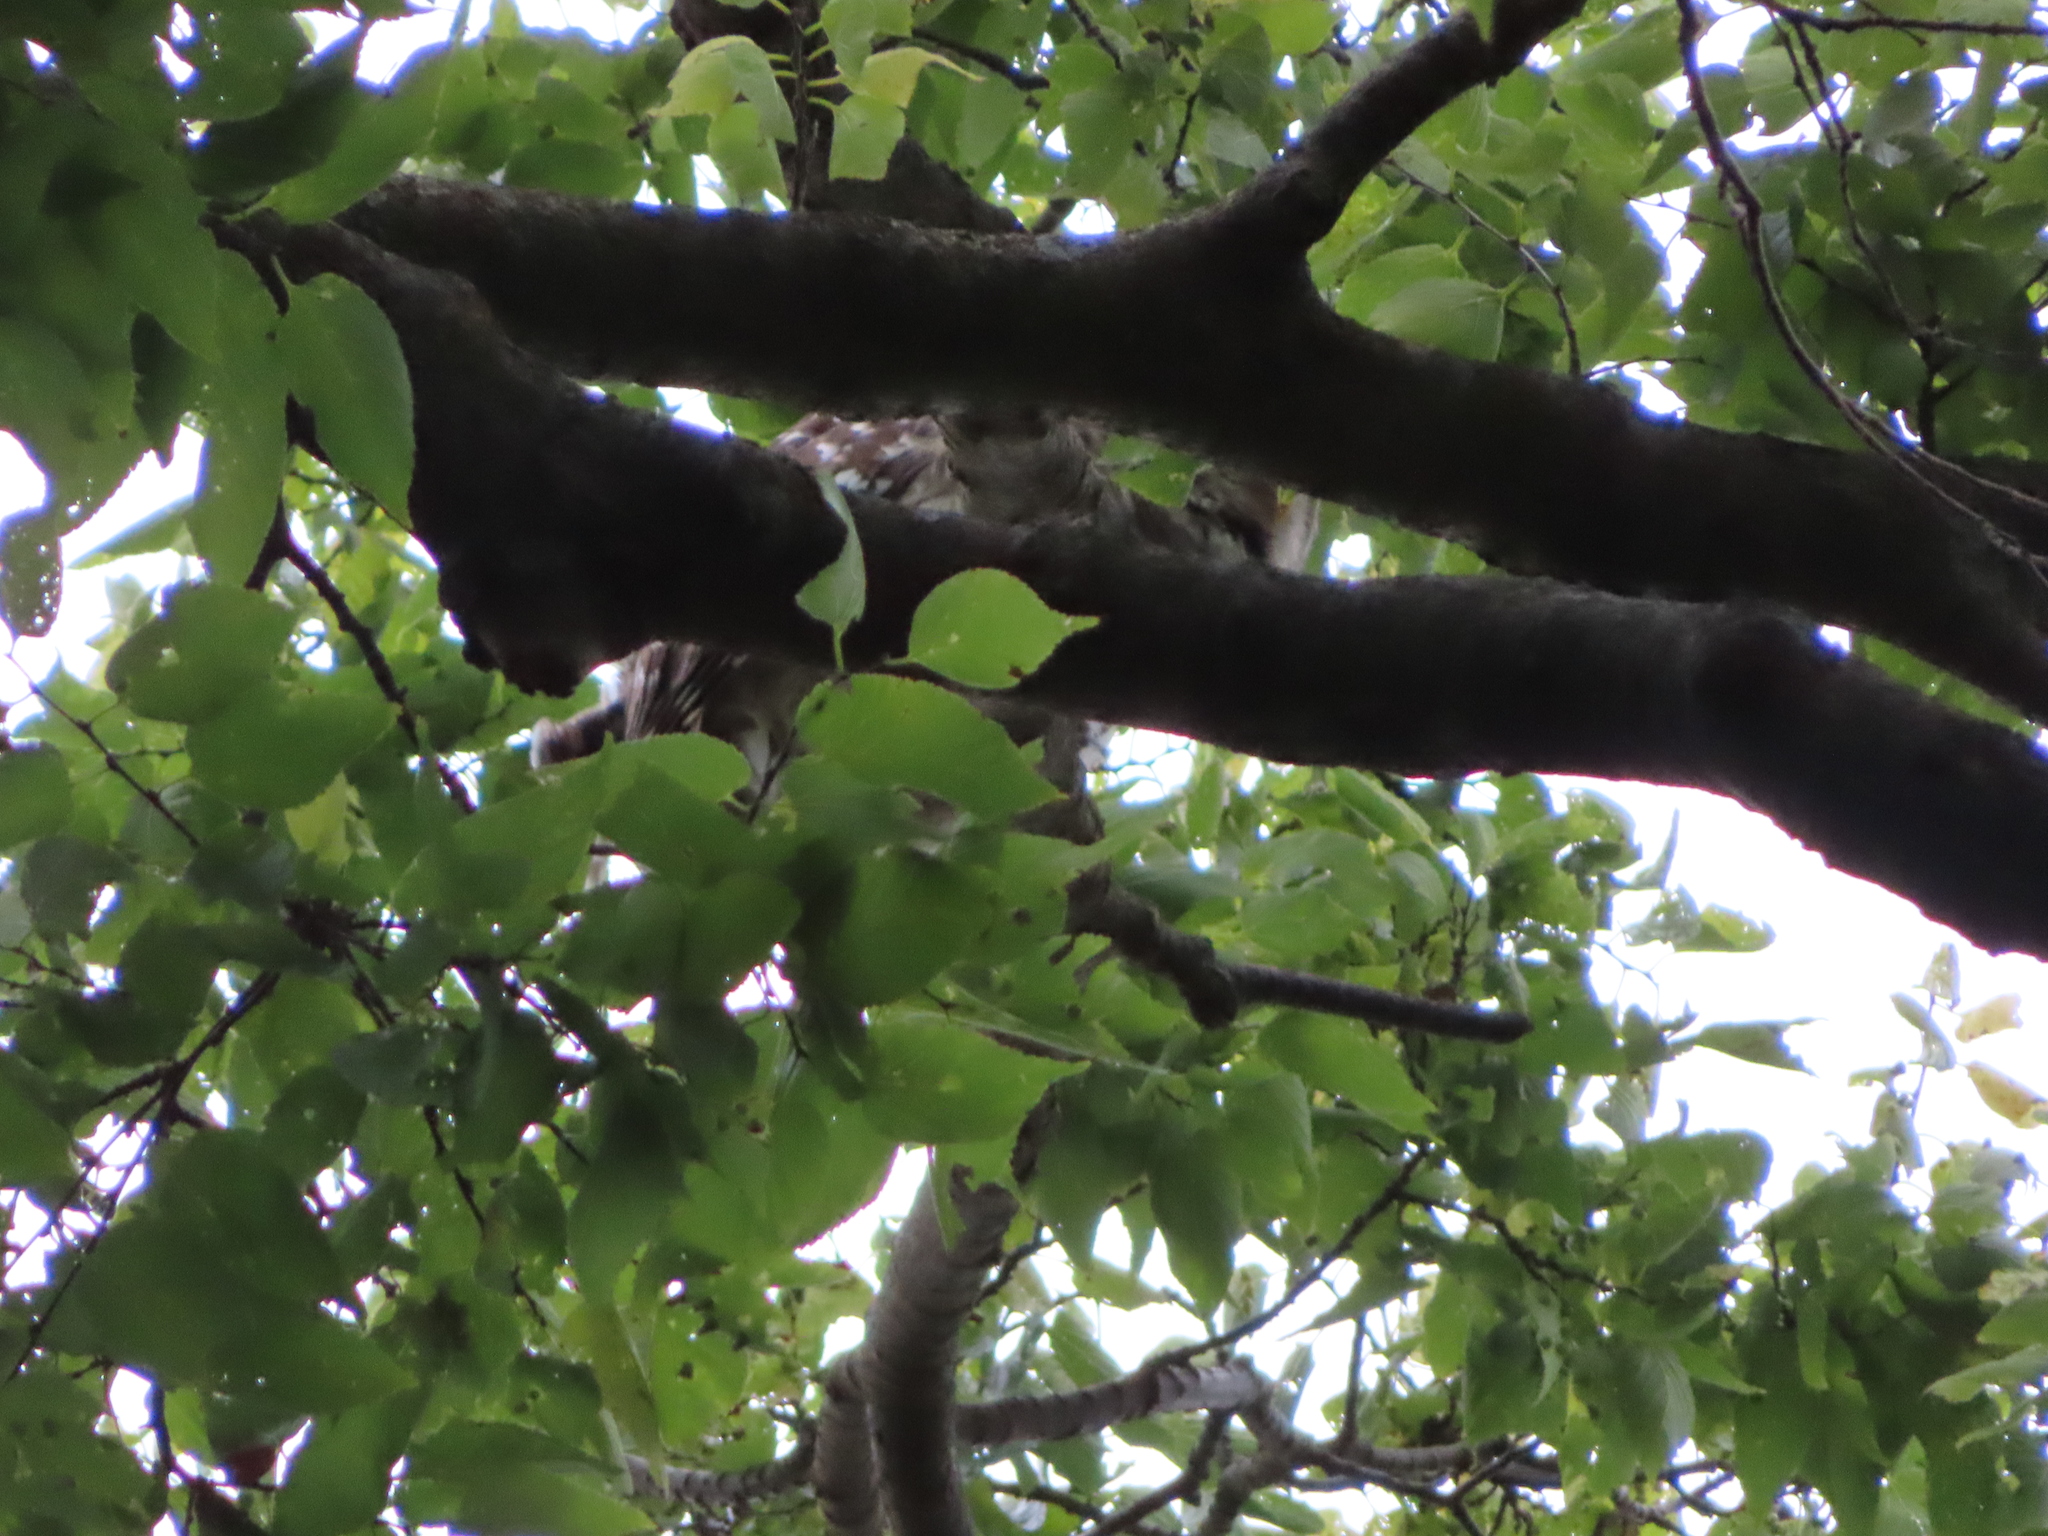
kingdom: Animalia
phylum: Chordata
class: Aves
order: Strigiformes
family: Strigidae
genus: Strix
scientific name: Strix varia
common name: Barred owl
